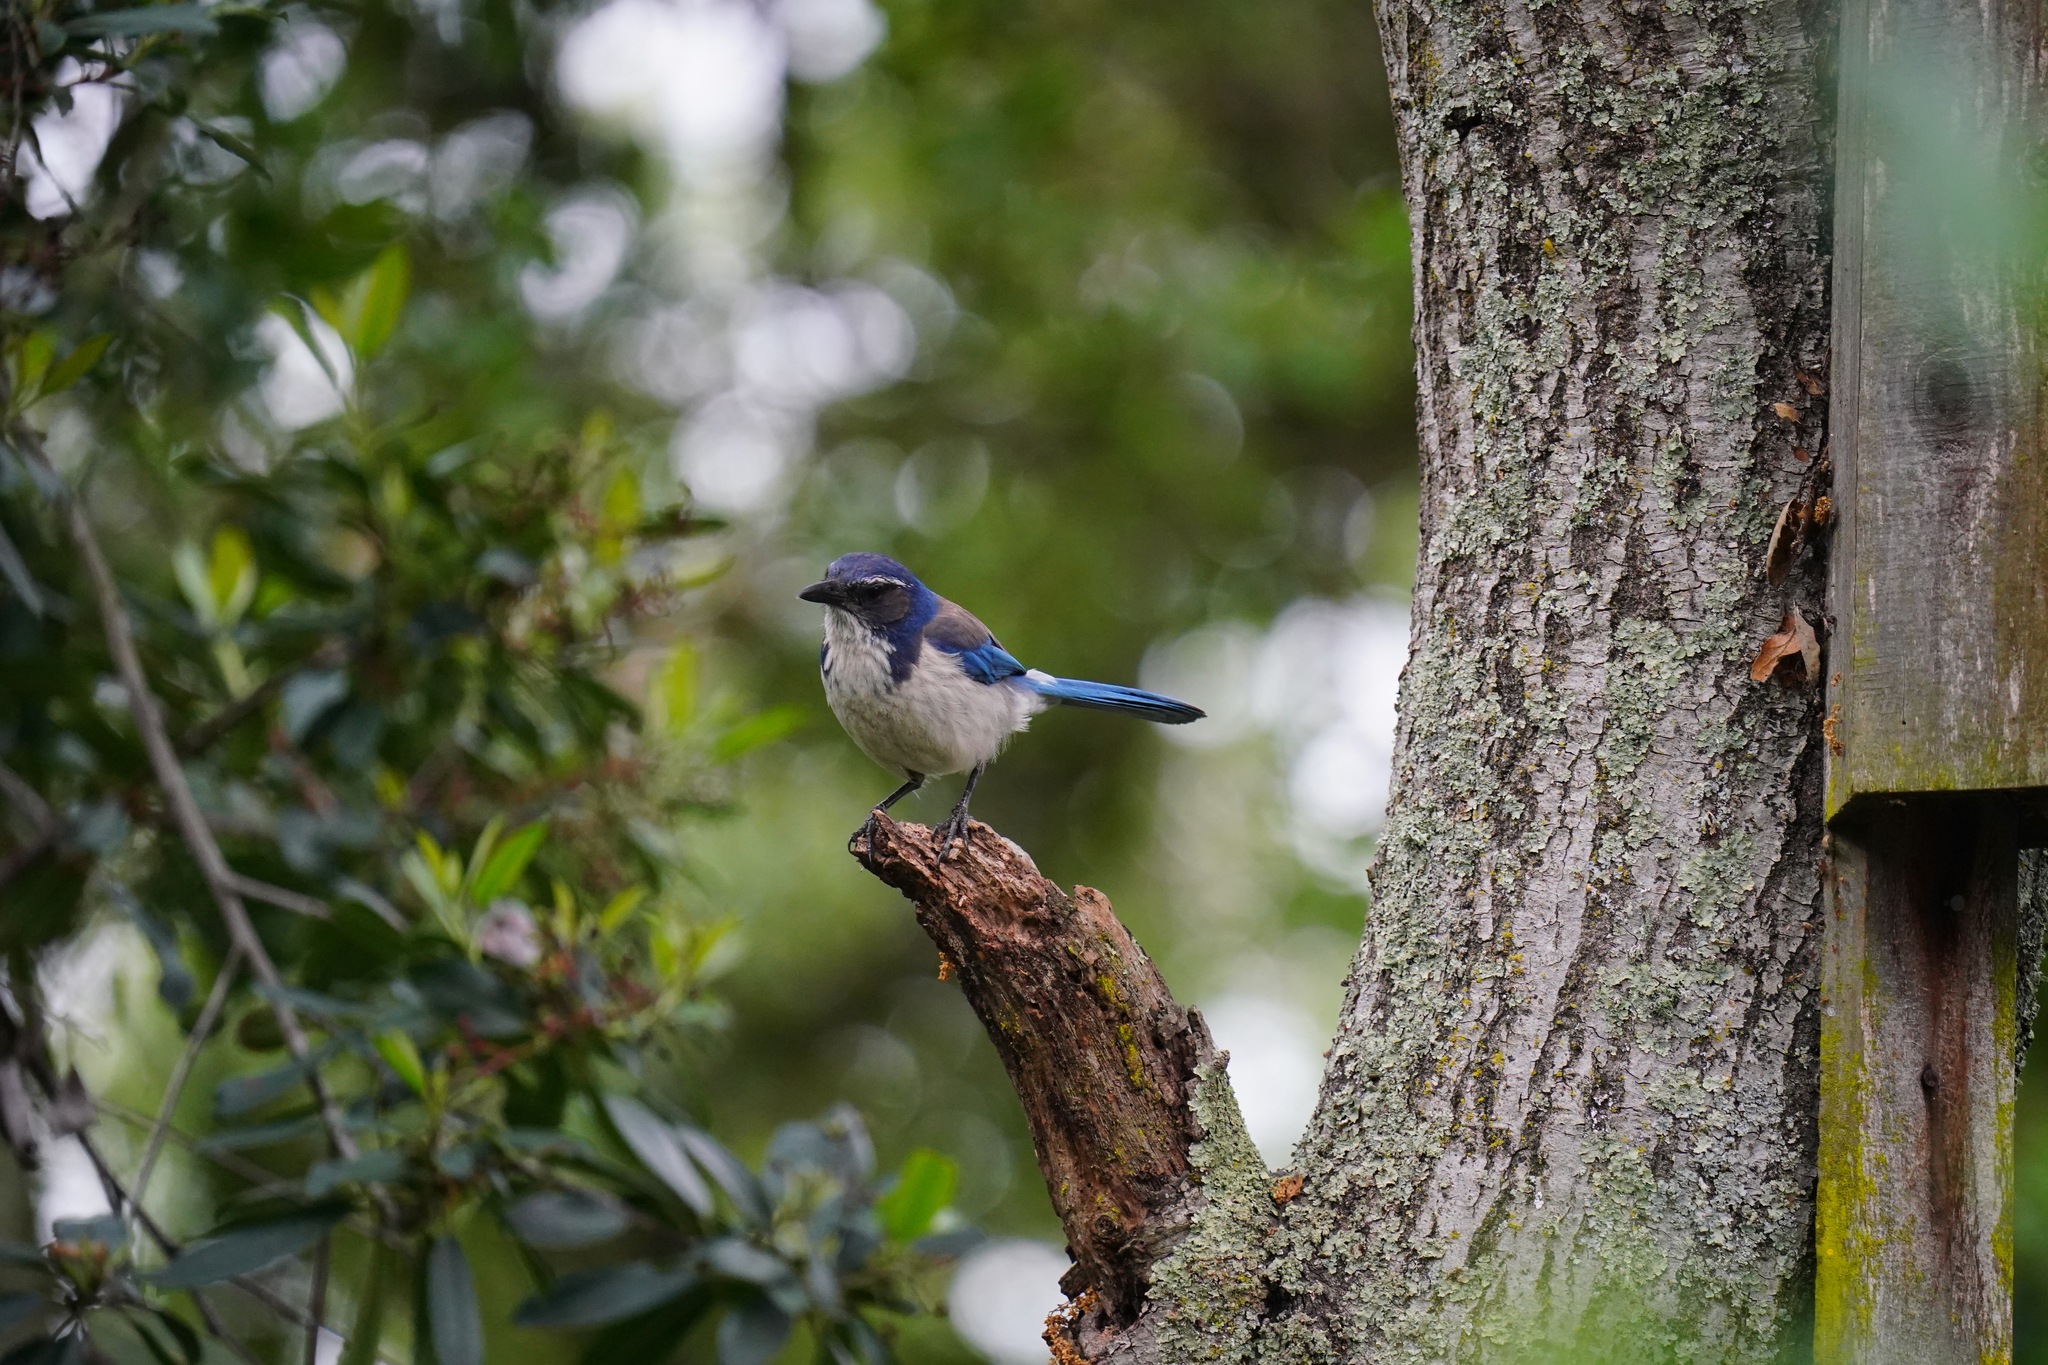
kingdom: Animalia
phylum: Chordata
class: Aves
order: Passeriformes
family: Corvidae
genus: Aphelocoma
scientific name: Aphelocoma californica
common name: California scrub-jay
